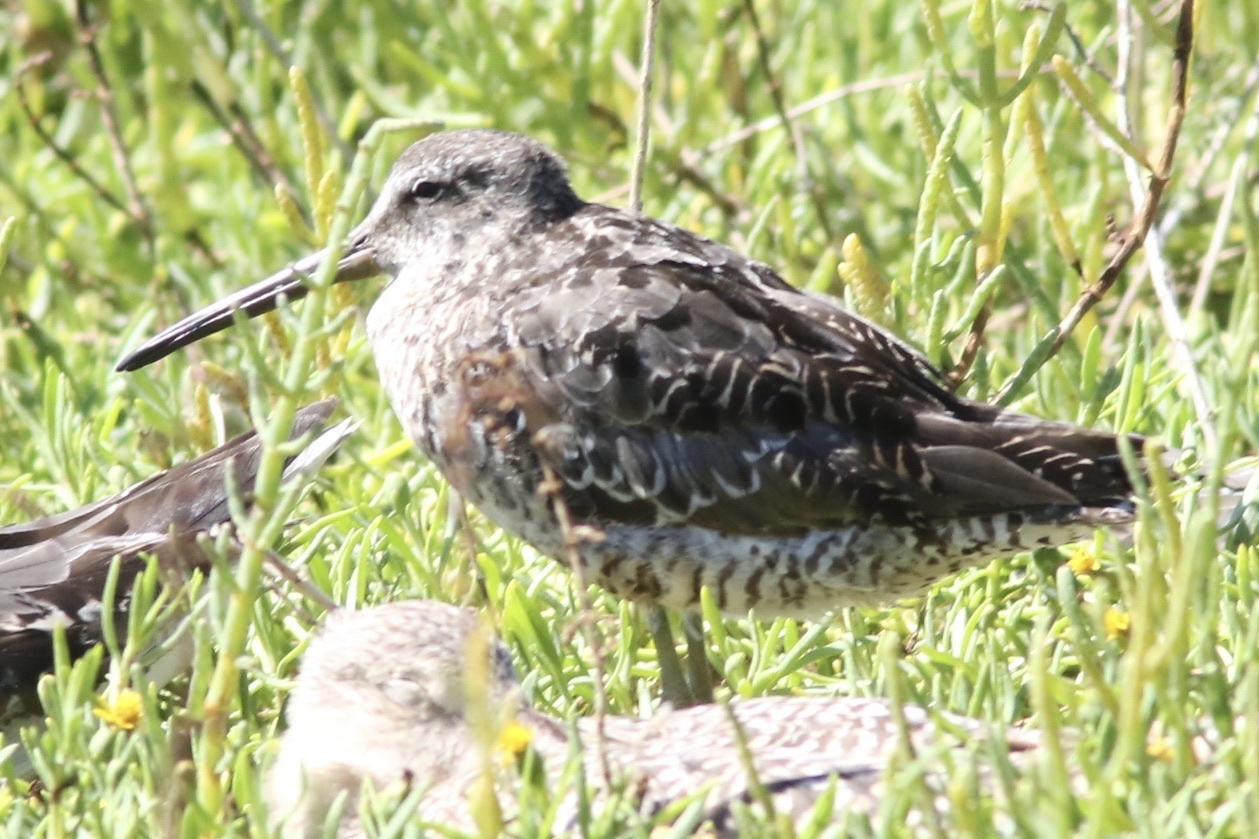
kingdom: Animalia
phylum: Chordata
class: Aves
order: Charadriiformes
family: Scolopacidae
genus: Limnodromus
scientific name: Limnodromus griseus
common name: Short-billed dowitcher
